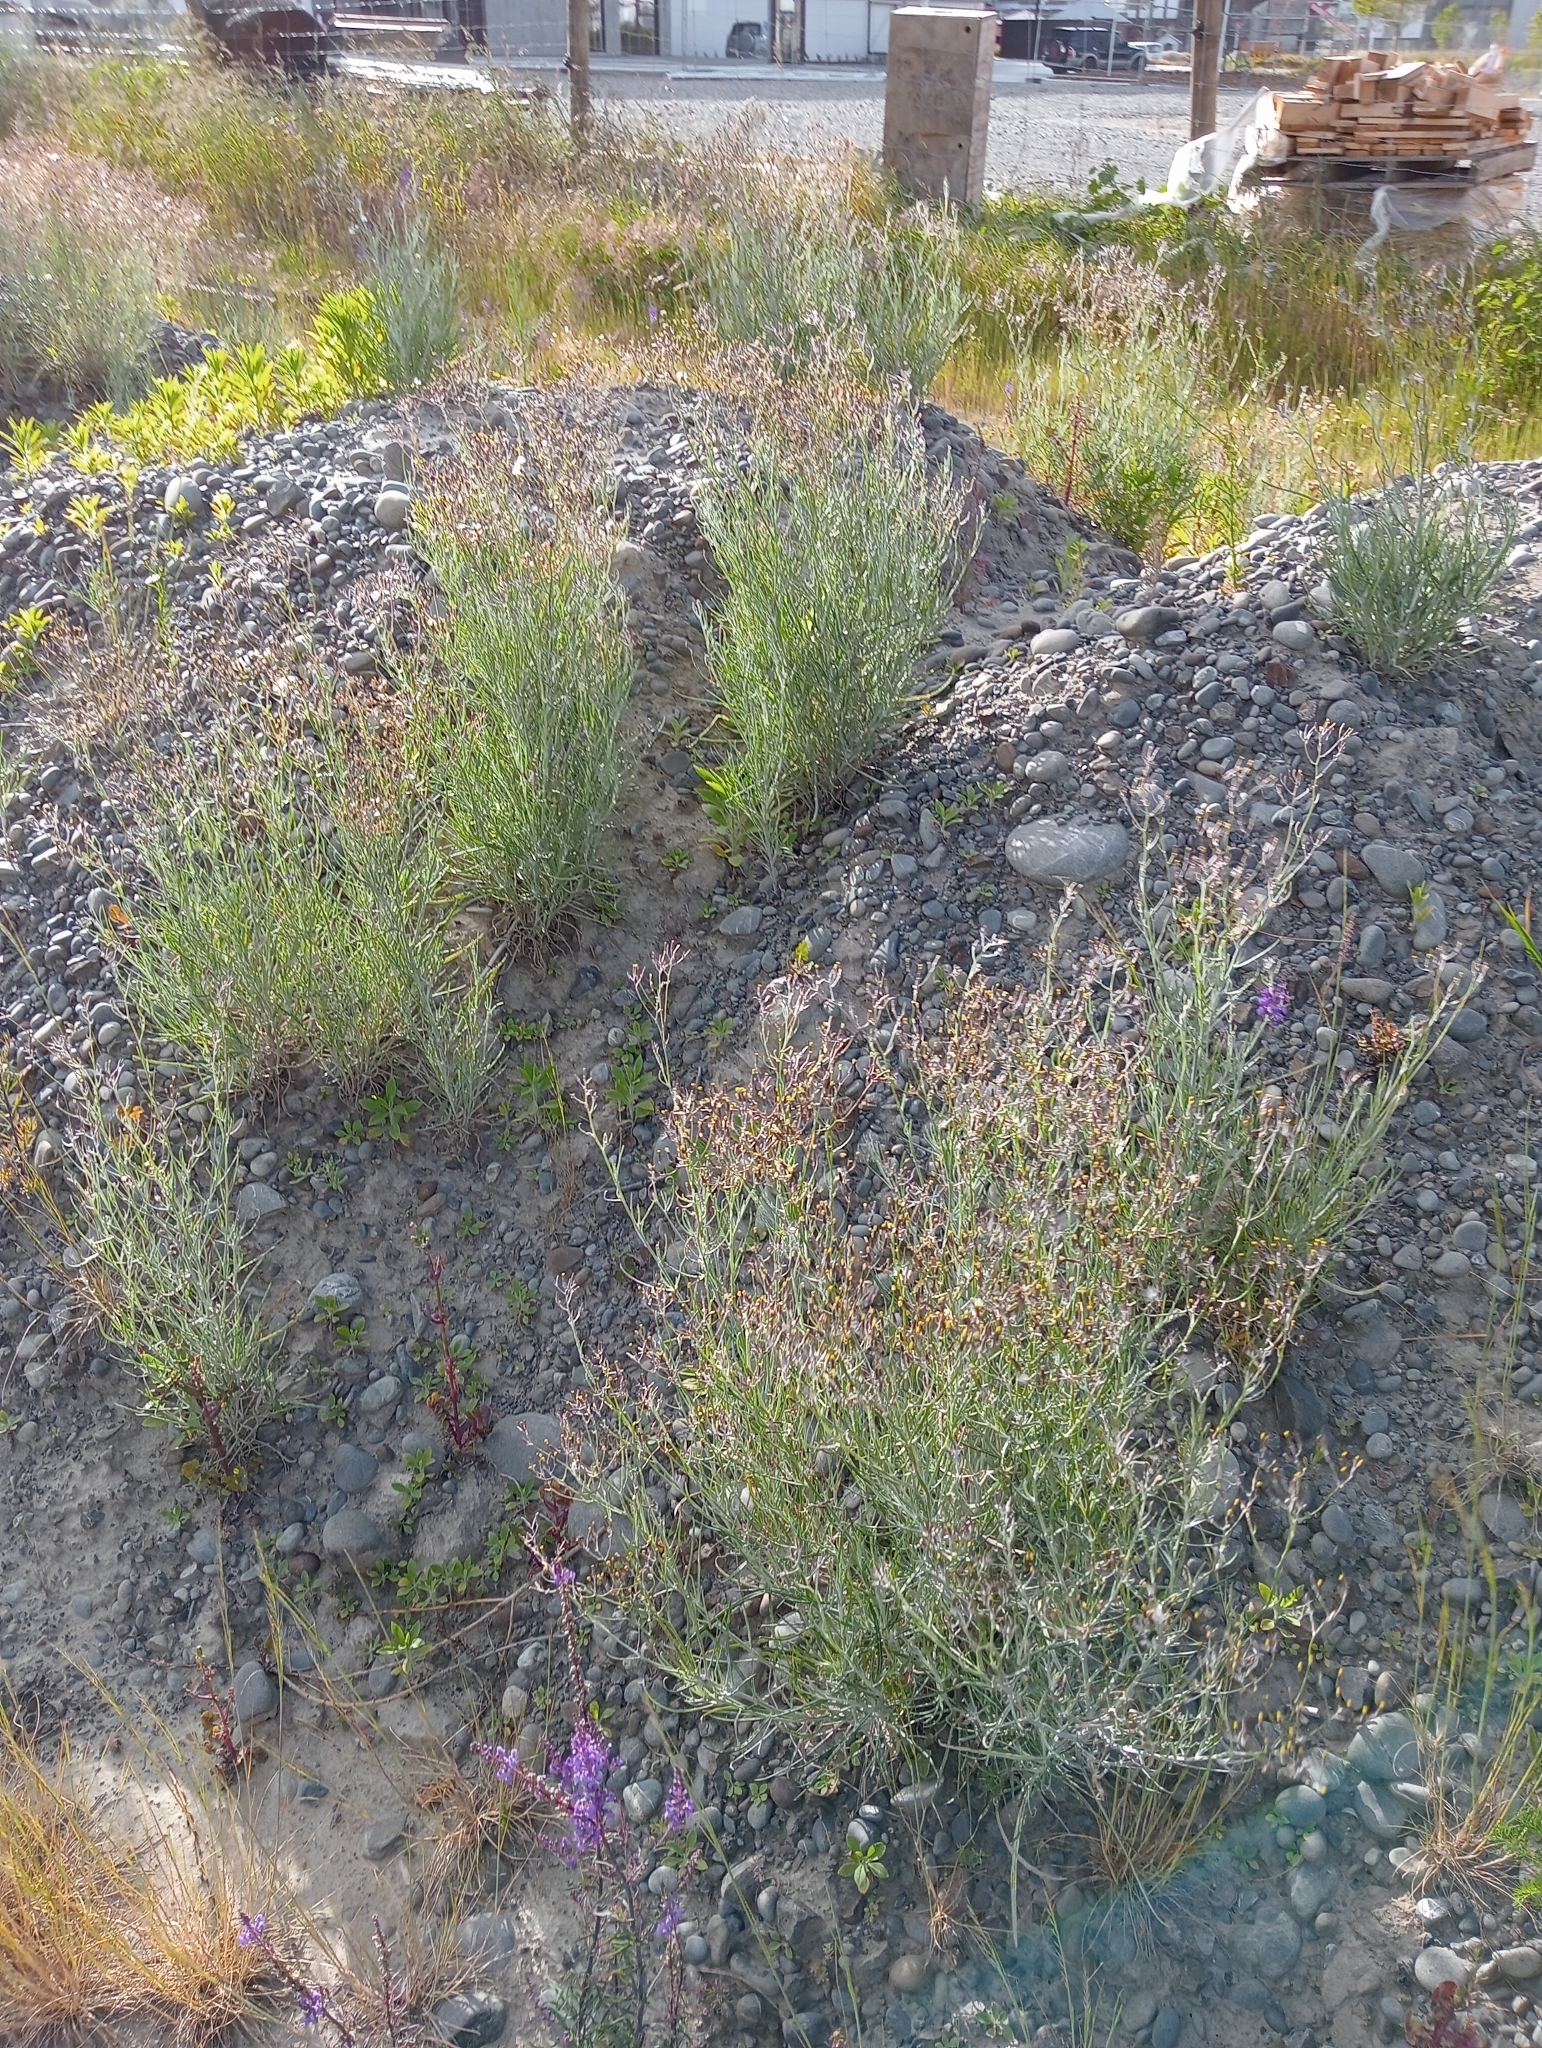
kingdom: Plantae
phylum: Tracheophyta
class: Magnoliopsida
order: Asterales
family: Asteraceae
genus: Senecio
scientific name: Senecio quadridentatus
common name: Cotton fireweed
